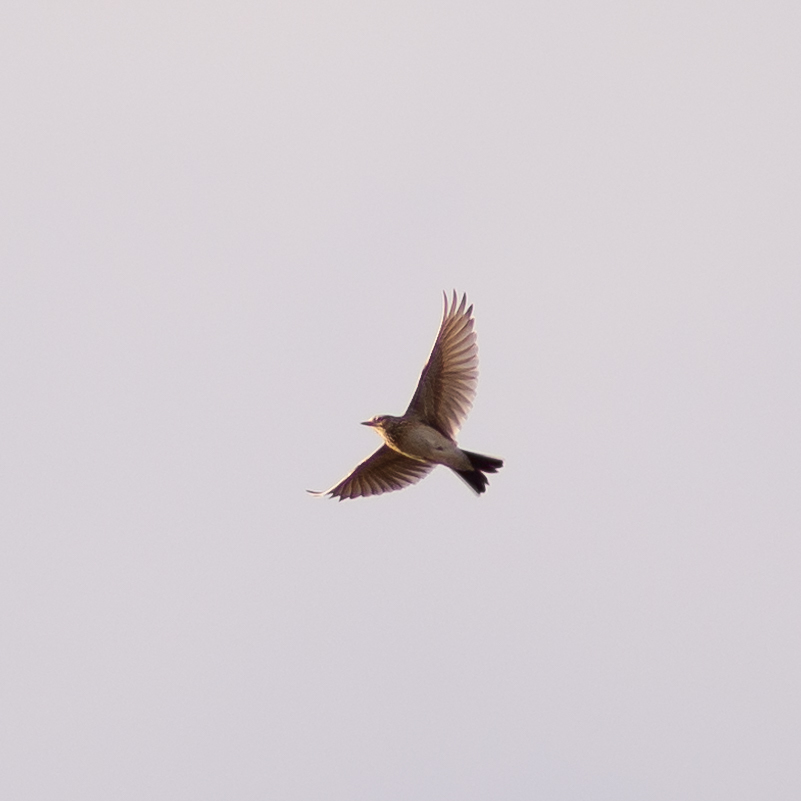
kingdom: Animalia
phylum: Chordata
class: Aves
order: Passeriformes
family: Alaudidae
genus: Alauda
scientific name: Alauda arvensis
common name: Eurasian skylark
